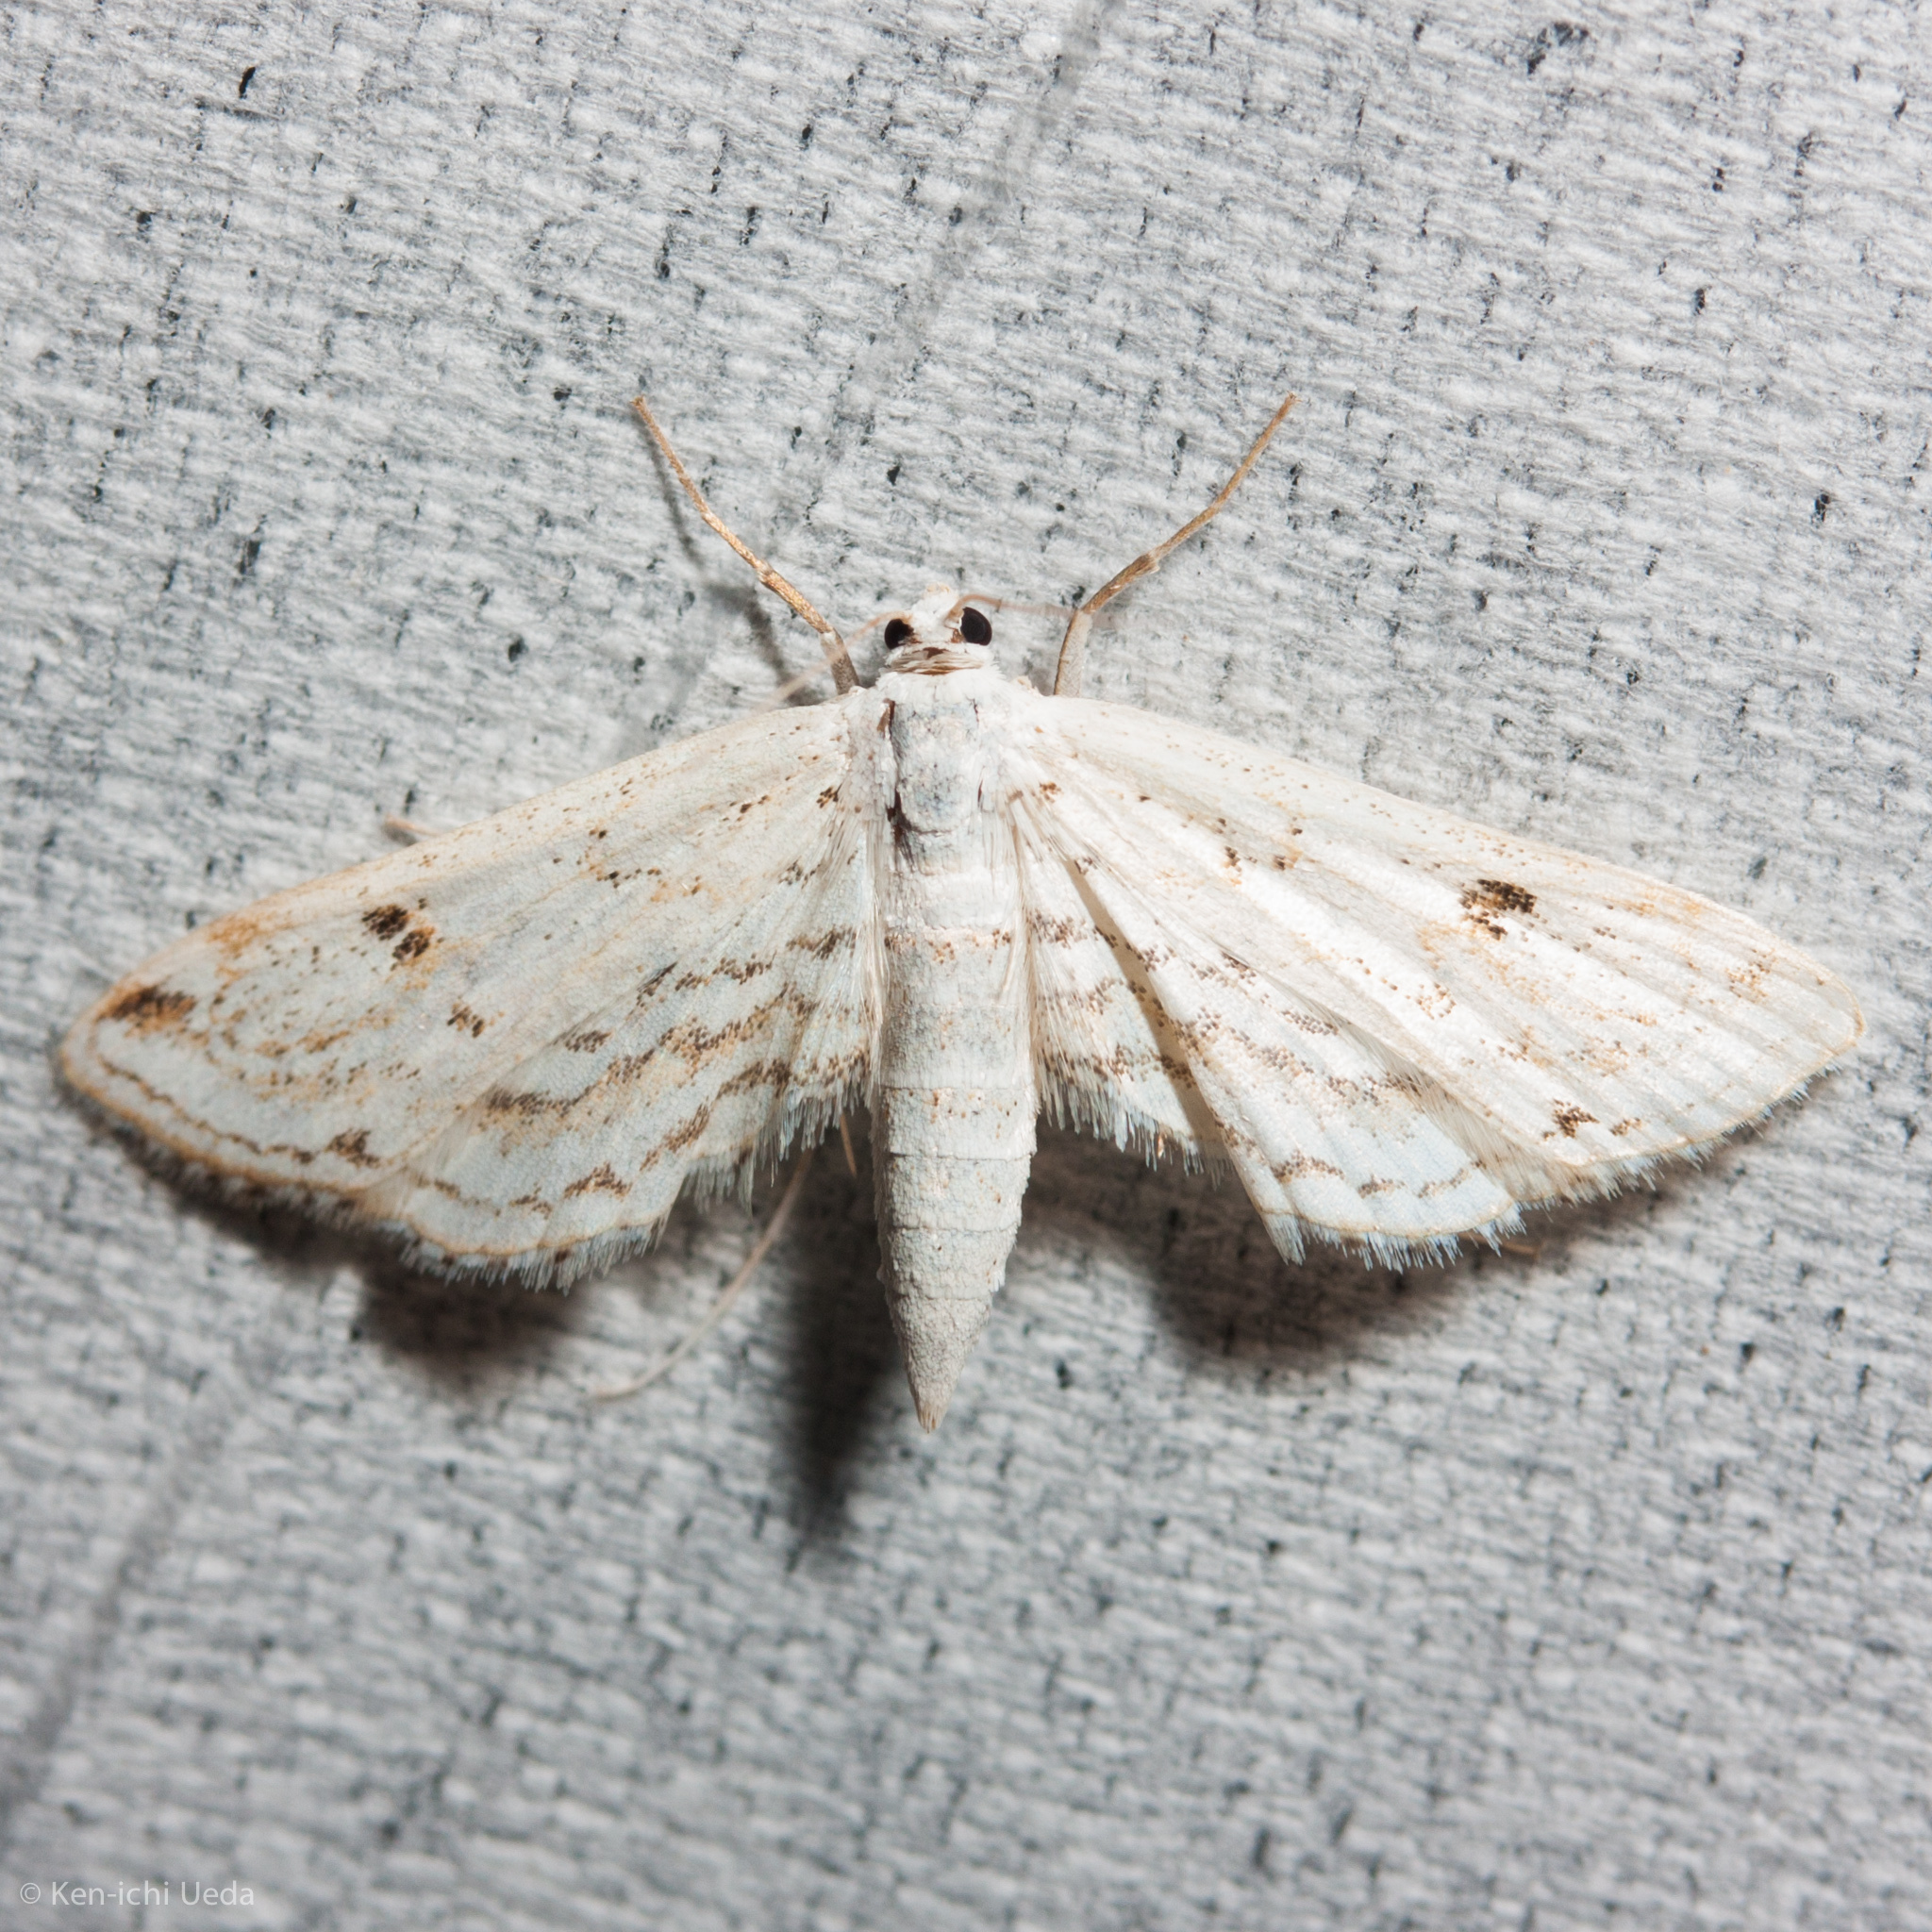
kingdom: Animalia
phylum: Arthropoda
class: Insecta
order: Lepidoptera
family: Crambidae
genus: Parapoynx
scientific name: Parapoynx allionealis
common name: Bladderwort casemaker
